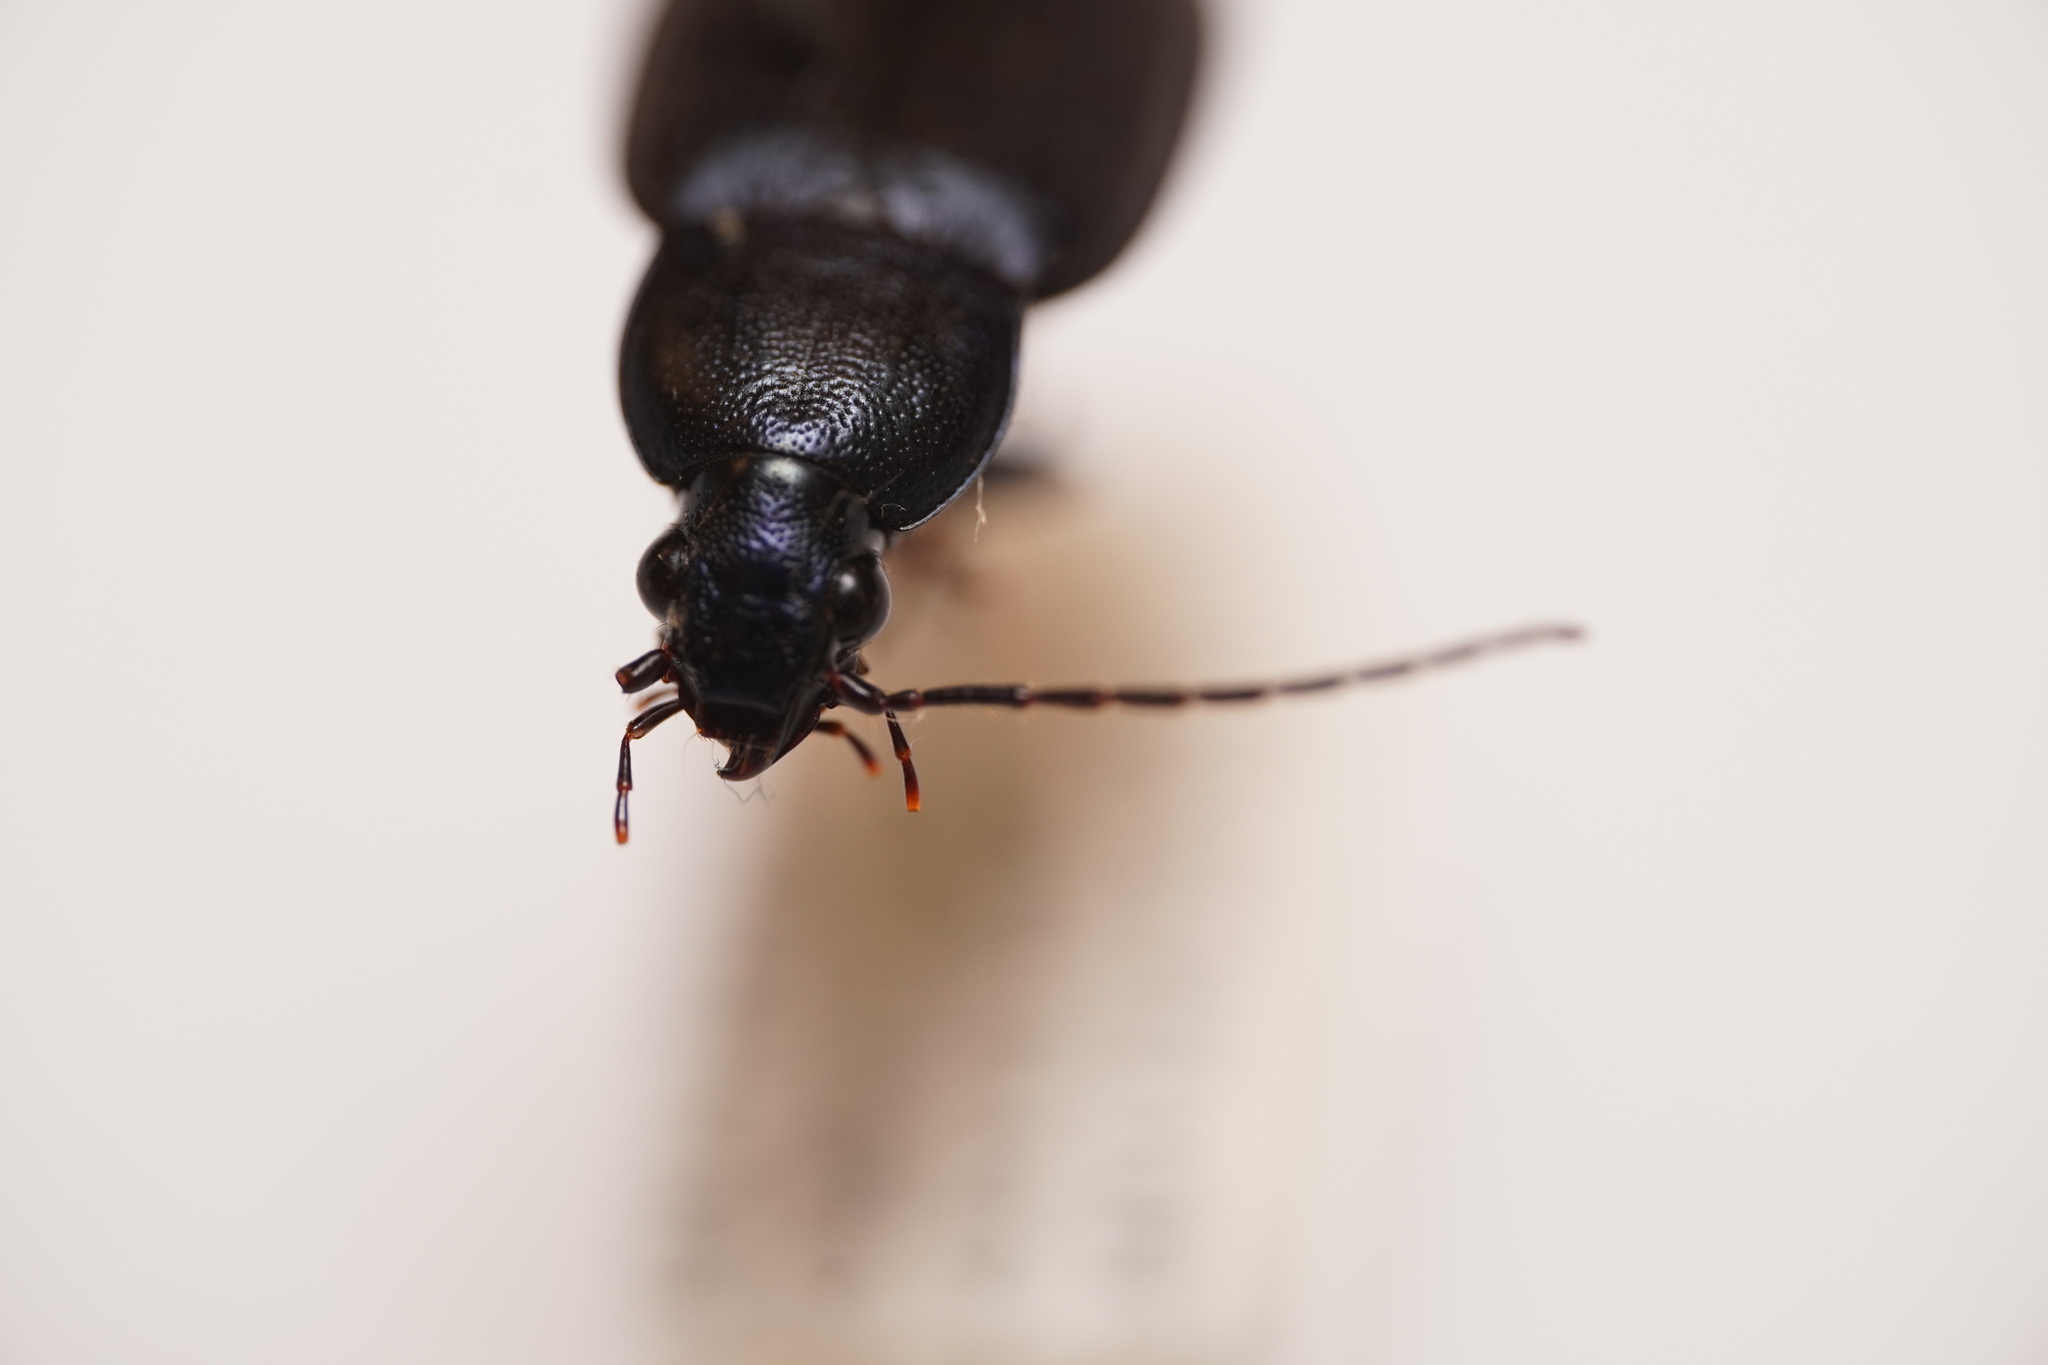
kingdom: Animalia
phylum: Arthropoda
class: Insecta
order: Coleoptera
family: Carabidae
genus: Chlaenius
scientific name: Chlaenius orbus
